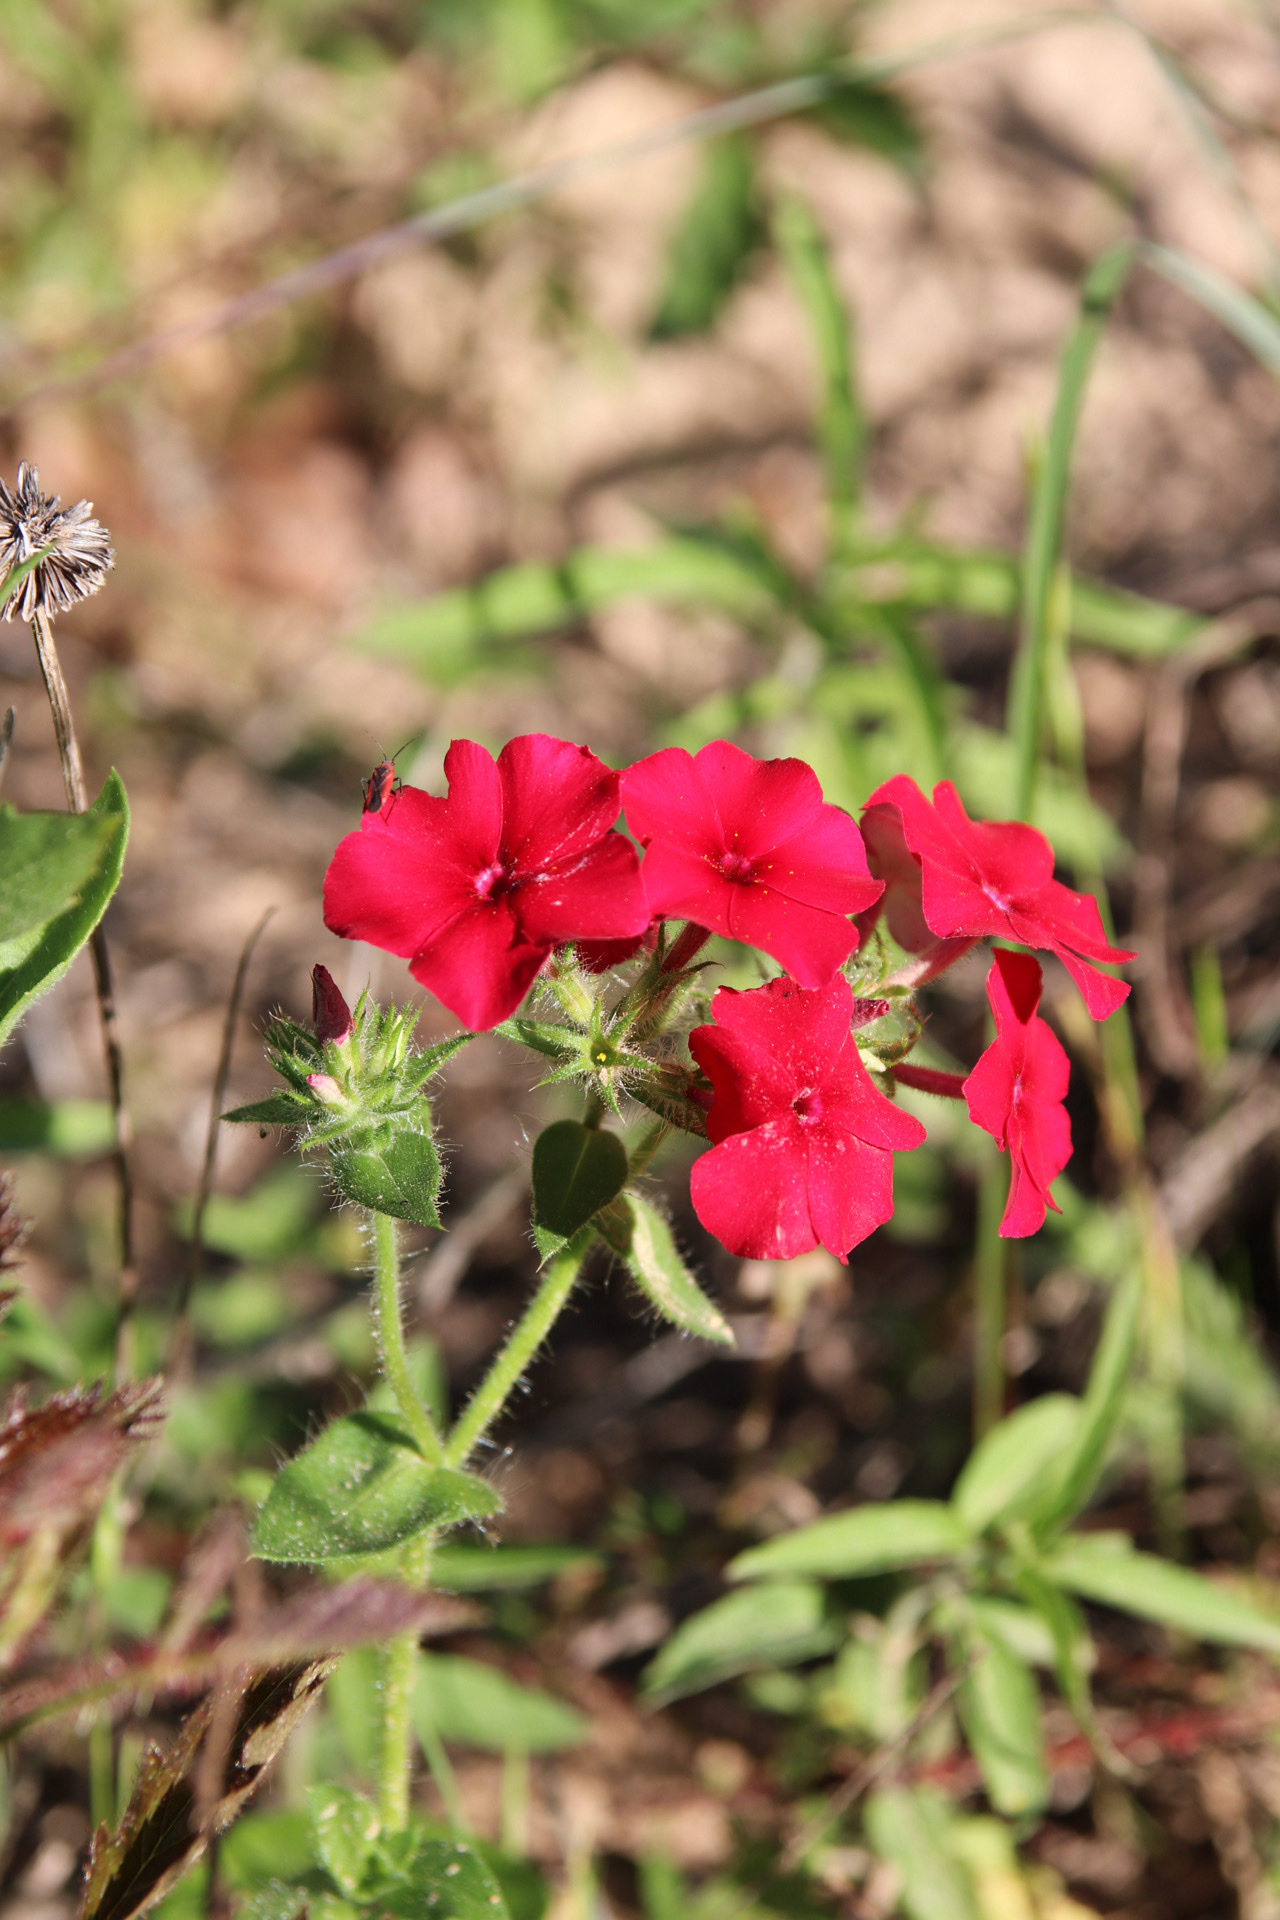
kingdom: Plantae
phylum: Tracheophyta
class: Magnoliopsida
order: Ericales
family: Polemoniaceae
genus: Phlox
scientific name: Phlox drummondii
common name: Drummond's phlox
